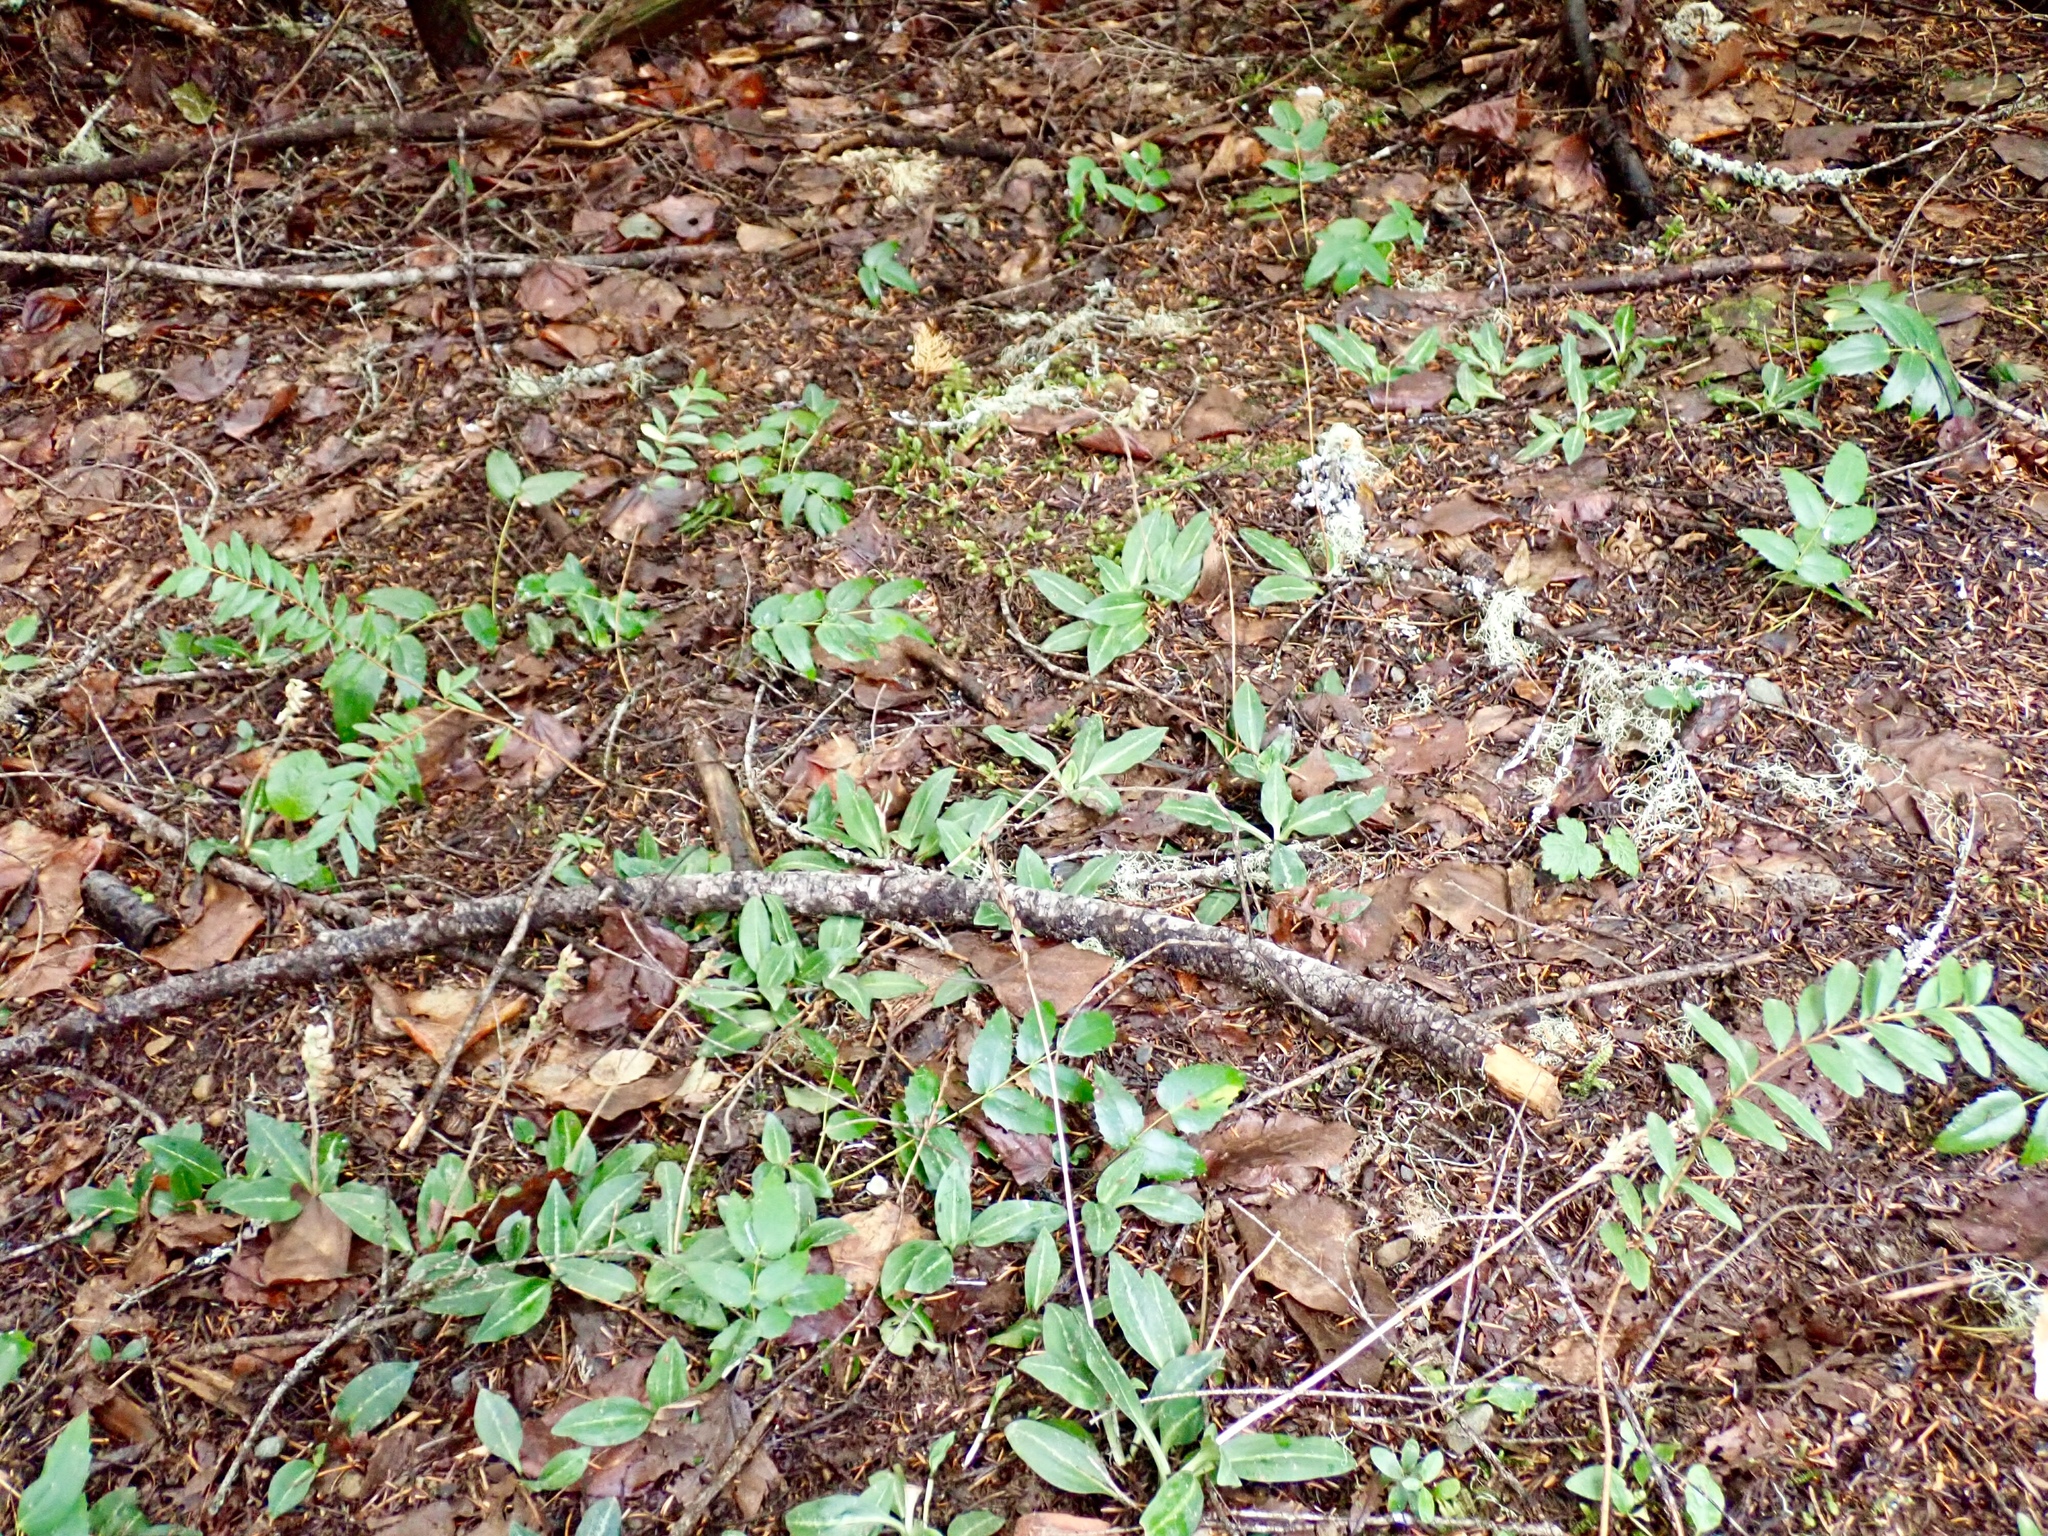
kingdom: Plantae
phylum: Tracheophyta
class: Liliopsida
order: Asparagales
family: Orchidaceae
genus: Goodyera
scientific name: Goodyera oblongifolia
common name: Giant rattlesnake-plantain
